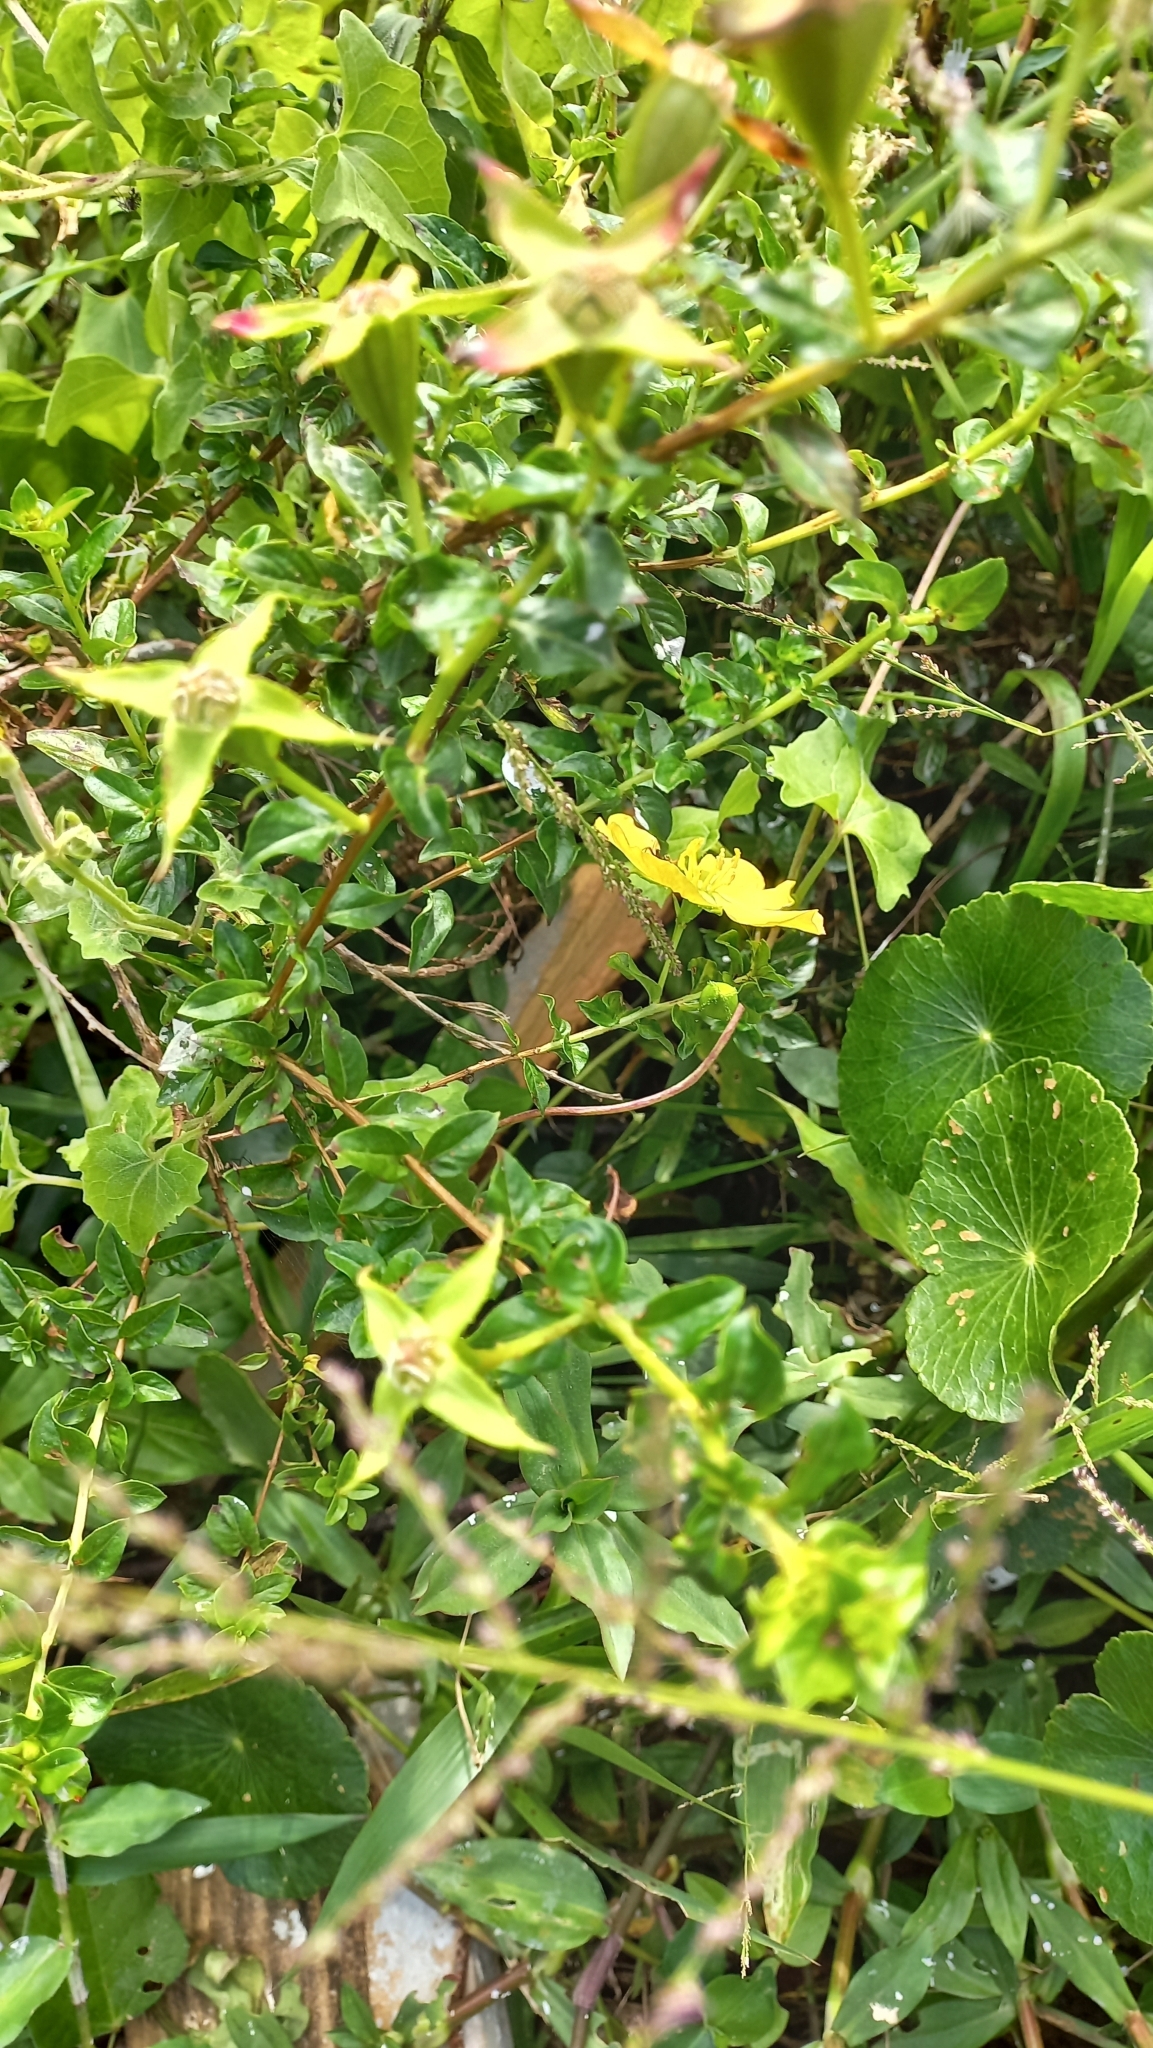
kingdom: Plantae
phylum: Tracheophyta
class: Magnoliopsida
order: Myrtales
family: Onagraceae
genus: Ludwigia
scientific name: Ludwigia multinervia
